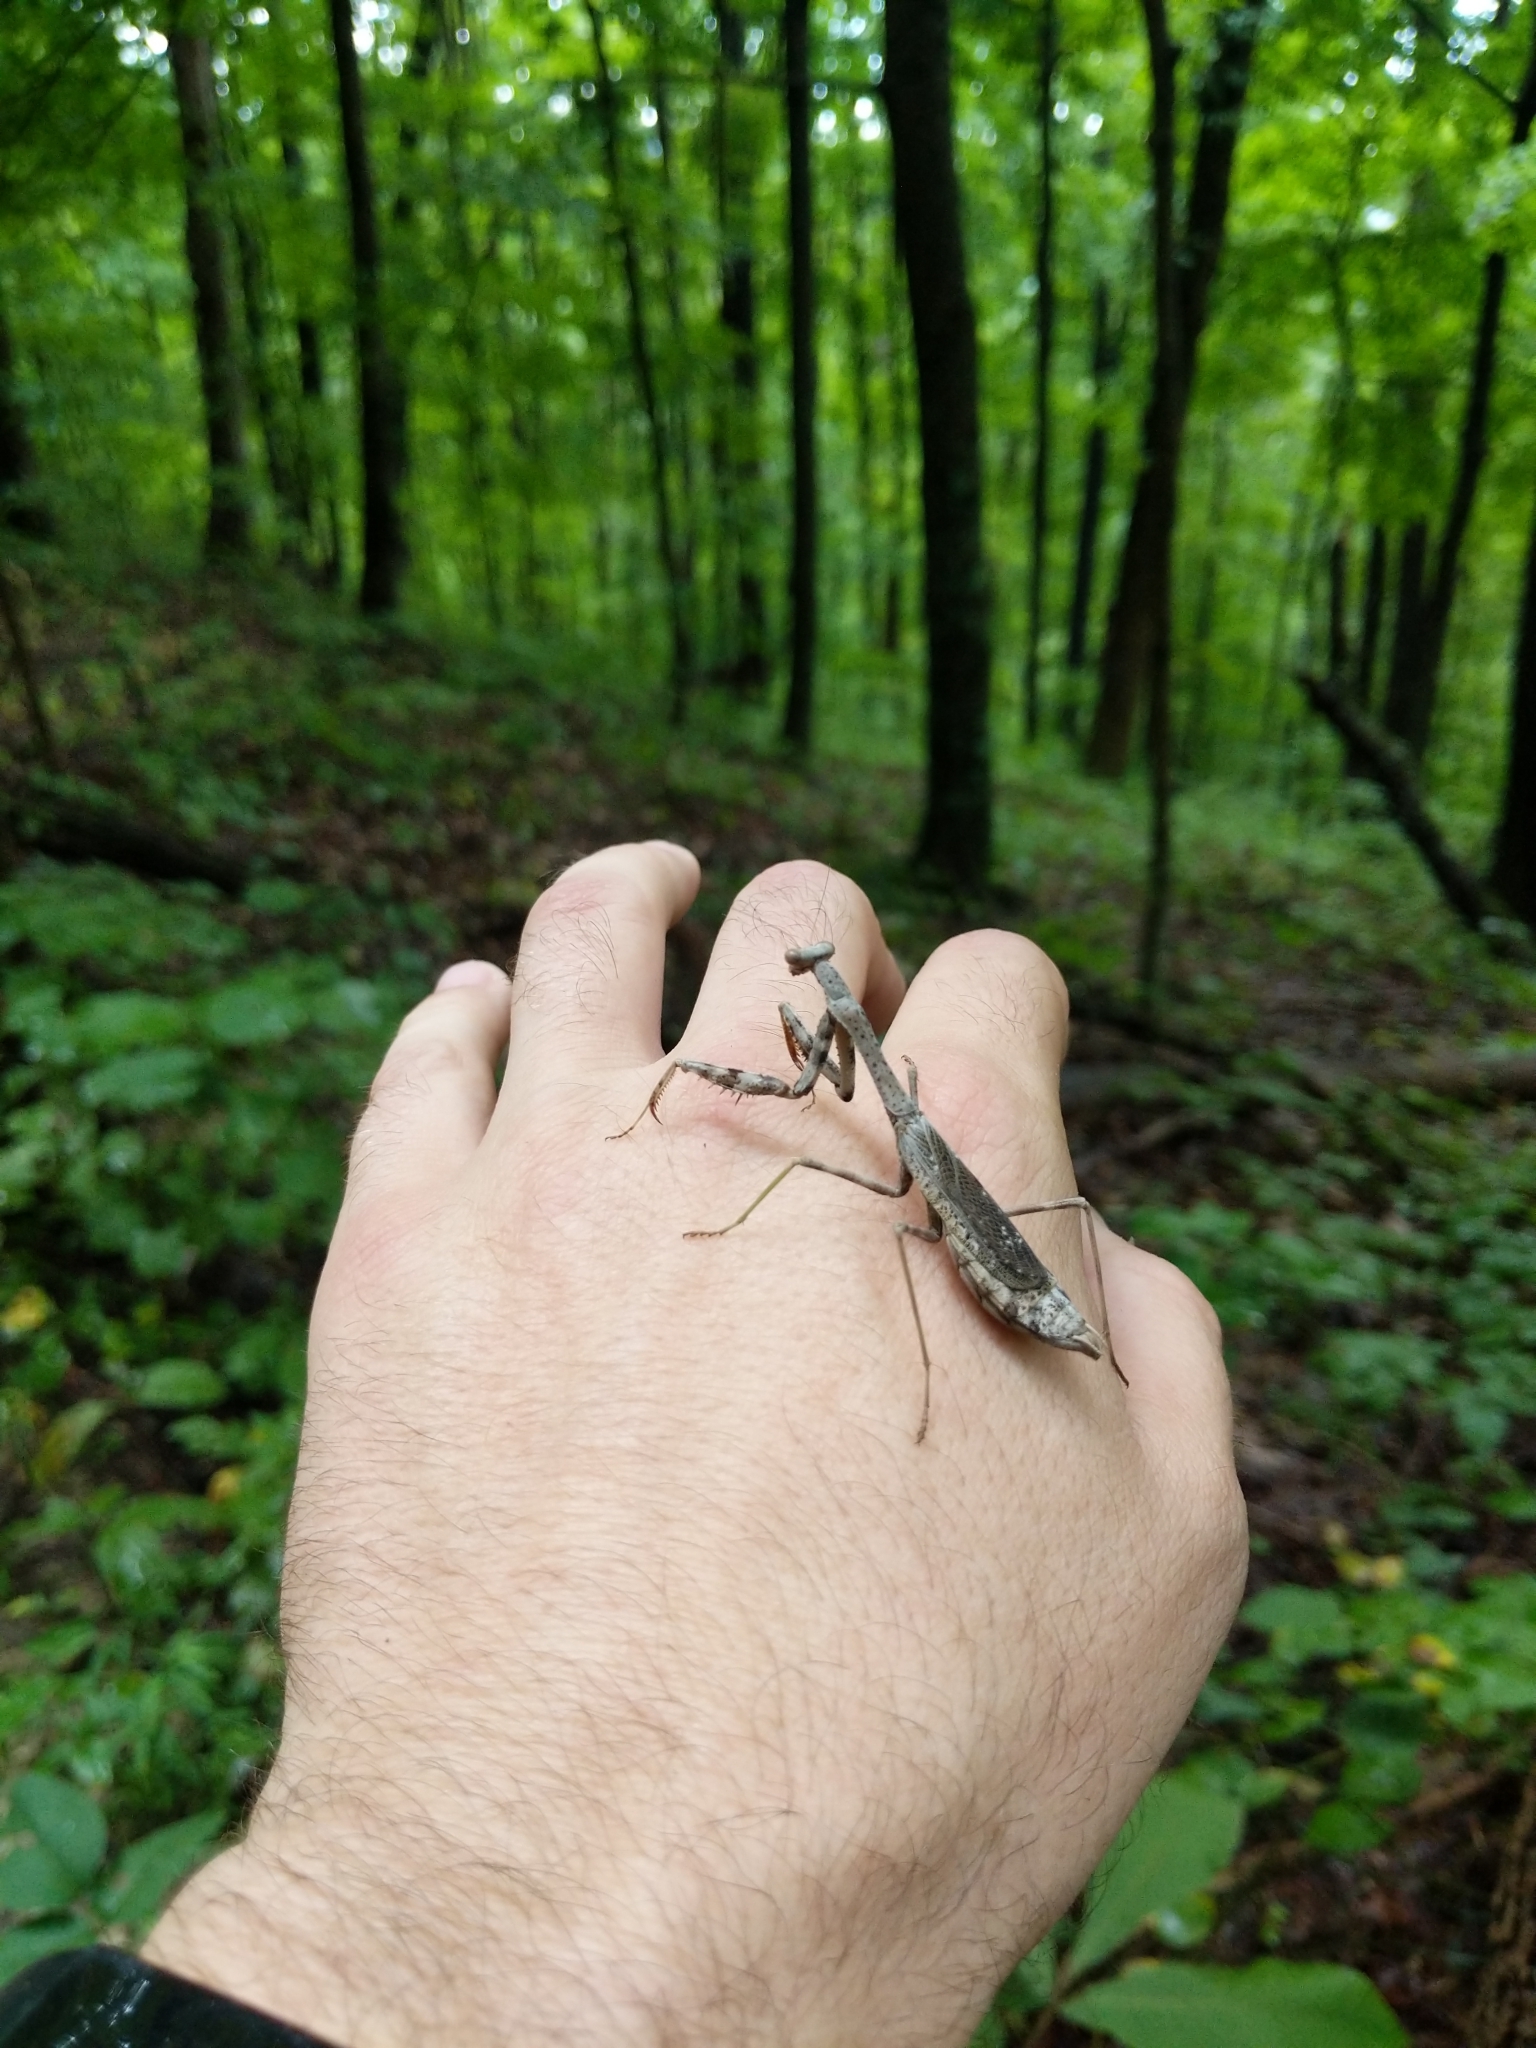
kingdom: Animalia
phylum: Arthropoda
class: Insecta
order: Mantodea
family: Mantidae
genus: Stagmomantis
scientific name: Stagmomantis carolina
